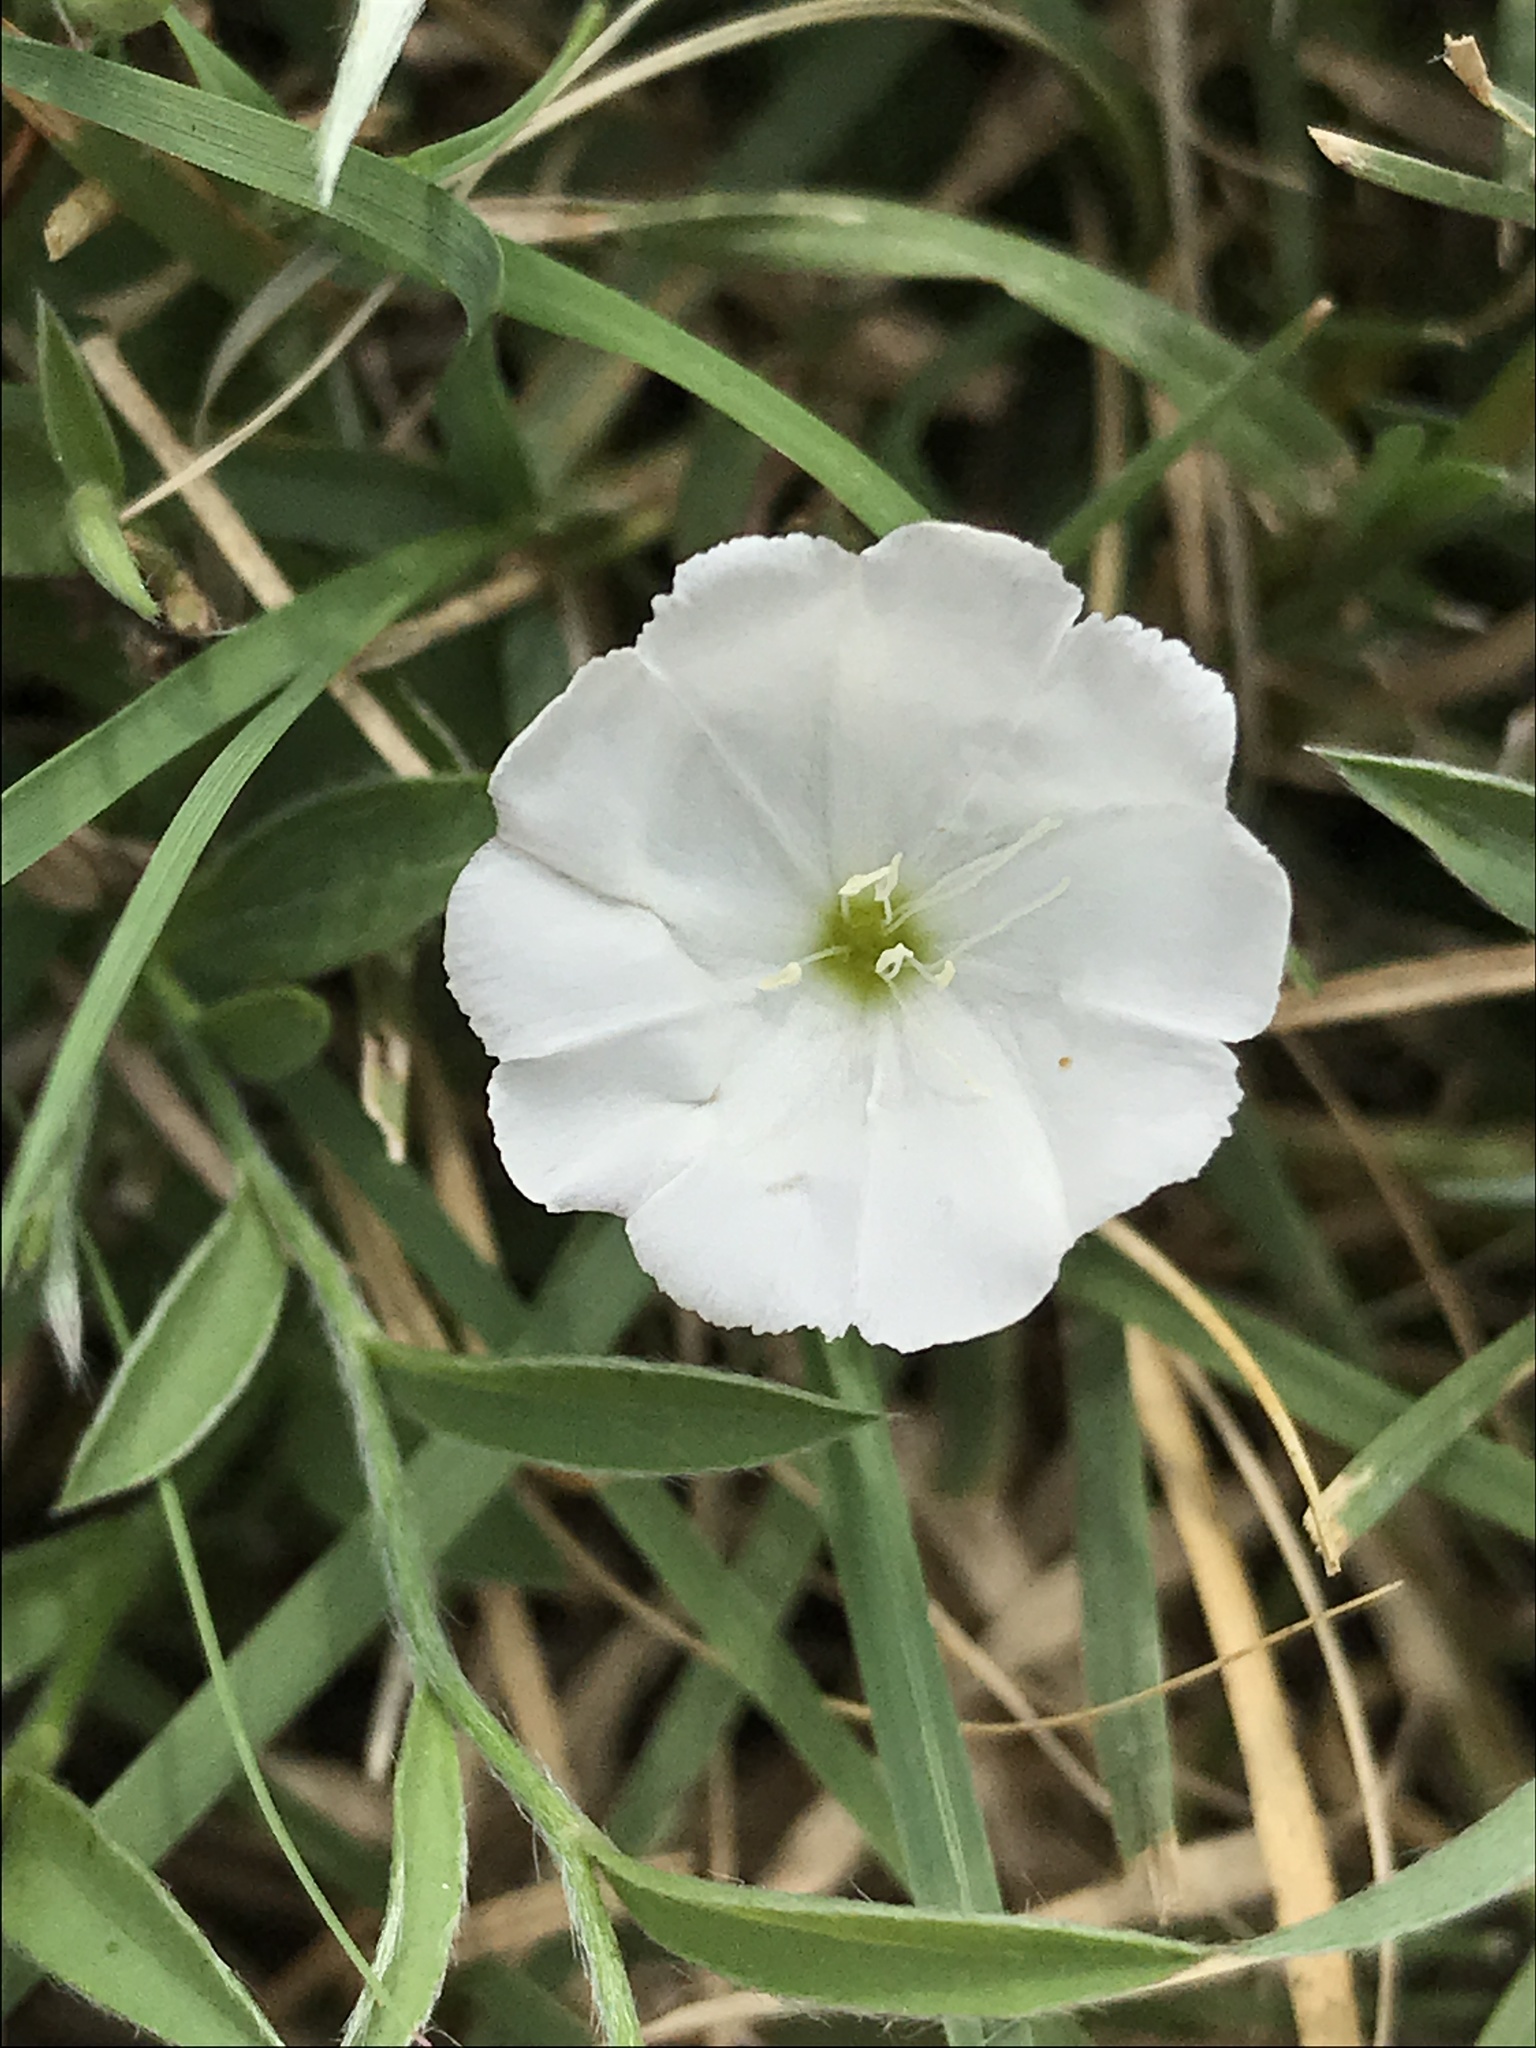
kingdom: Plantae
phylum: Tracheophyta
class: Magnoliopsida
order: Solanales
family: Convolvulaceae
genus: Evolvulus
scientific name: Evolvulus sericeus
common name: Blue dots
